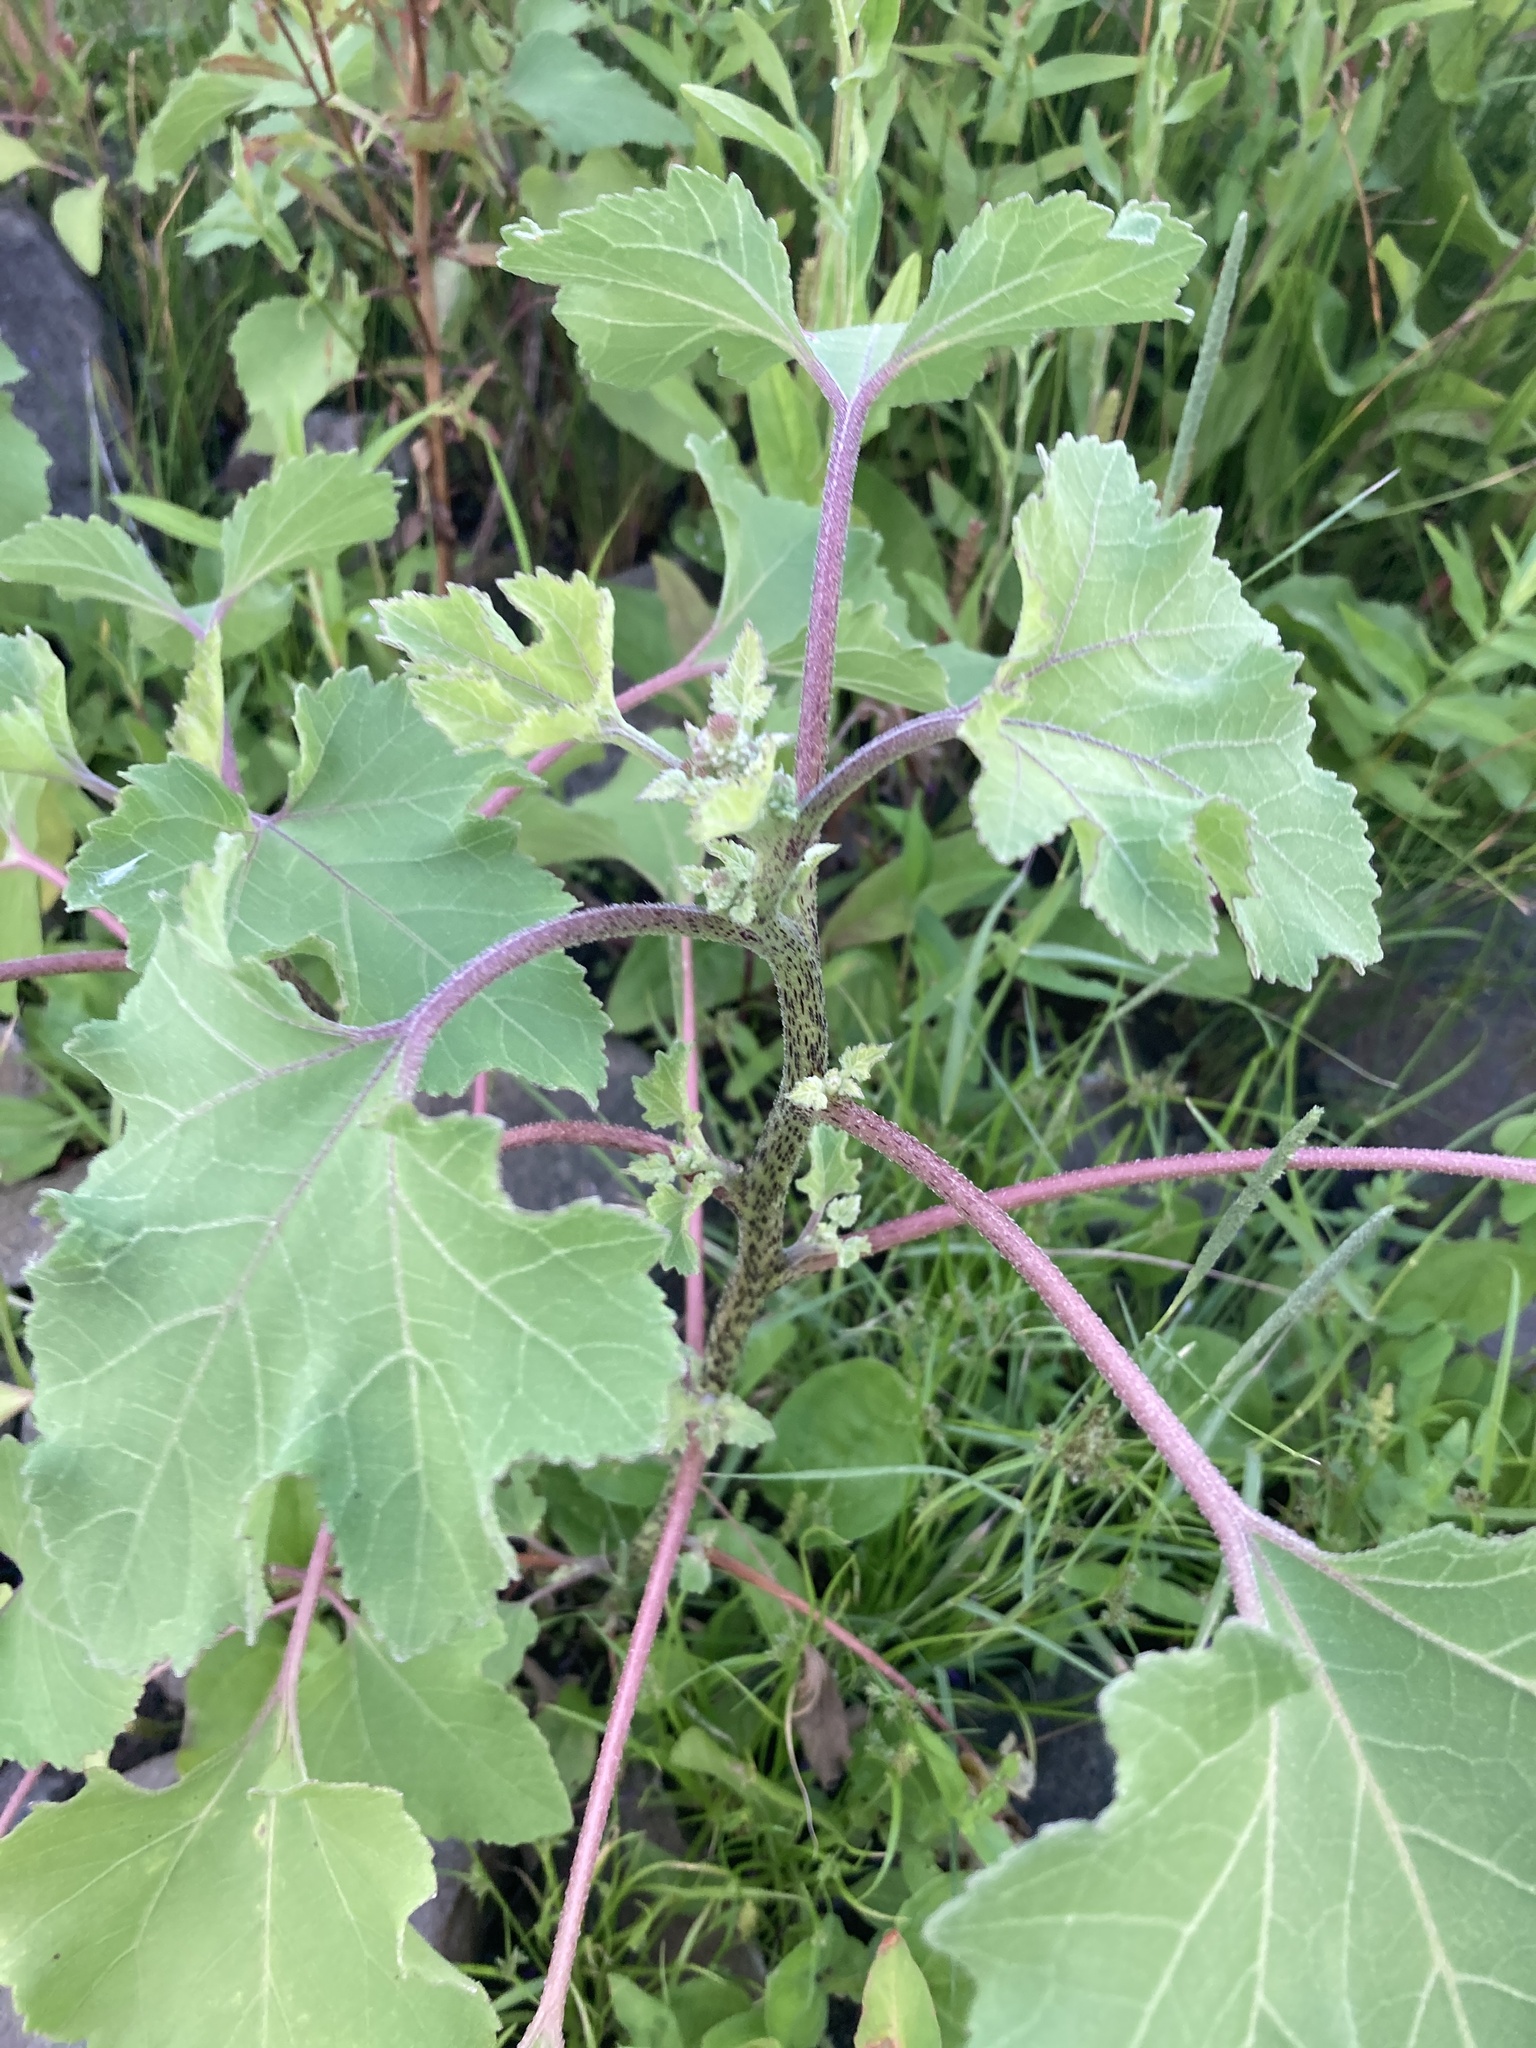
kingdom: Plantae
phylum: Tracheophyta
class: Magnoliopsida
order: Asterales
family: Asteraceae
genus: Xanthium
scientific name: Xanthium orientale
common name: Californian burr
